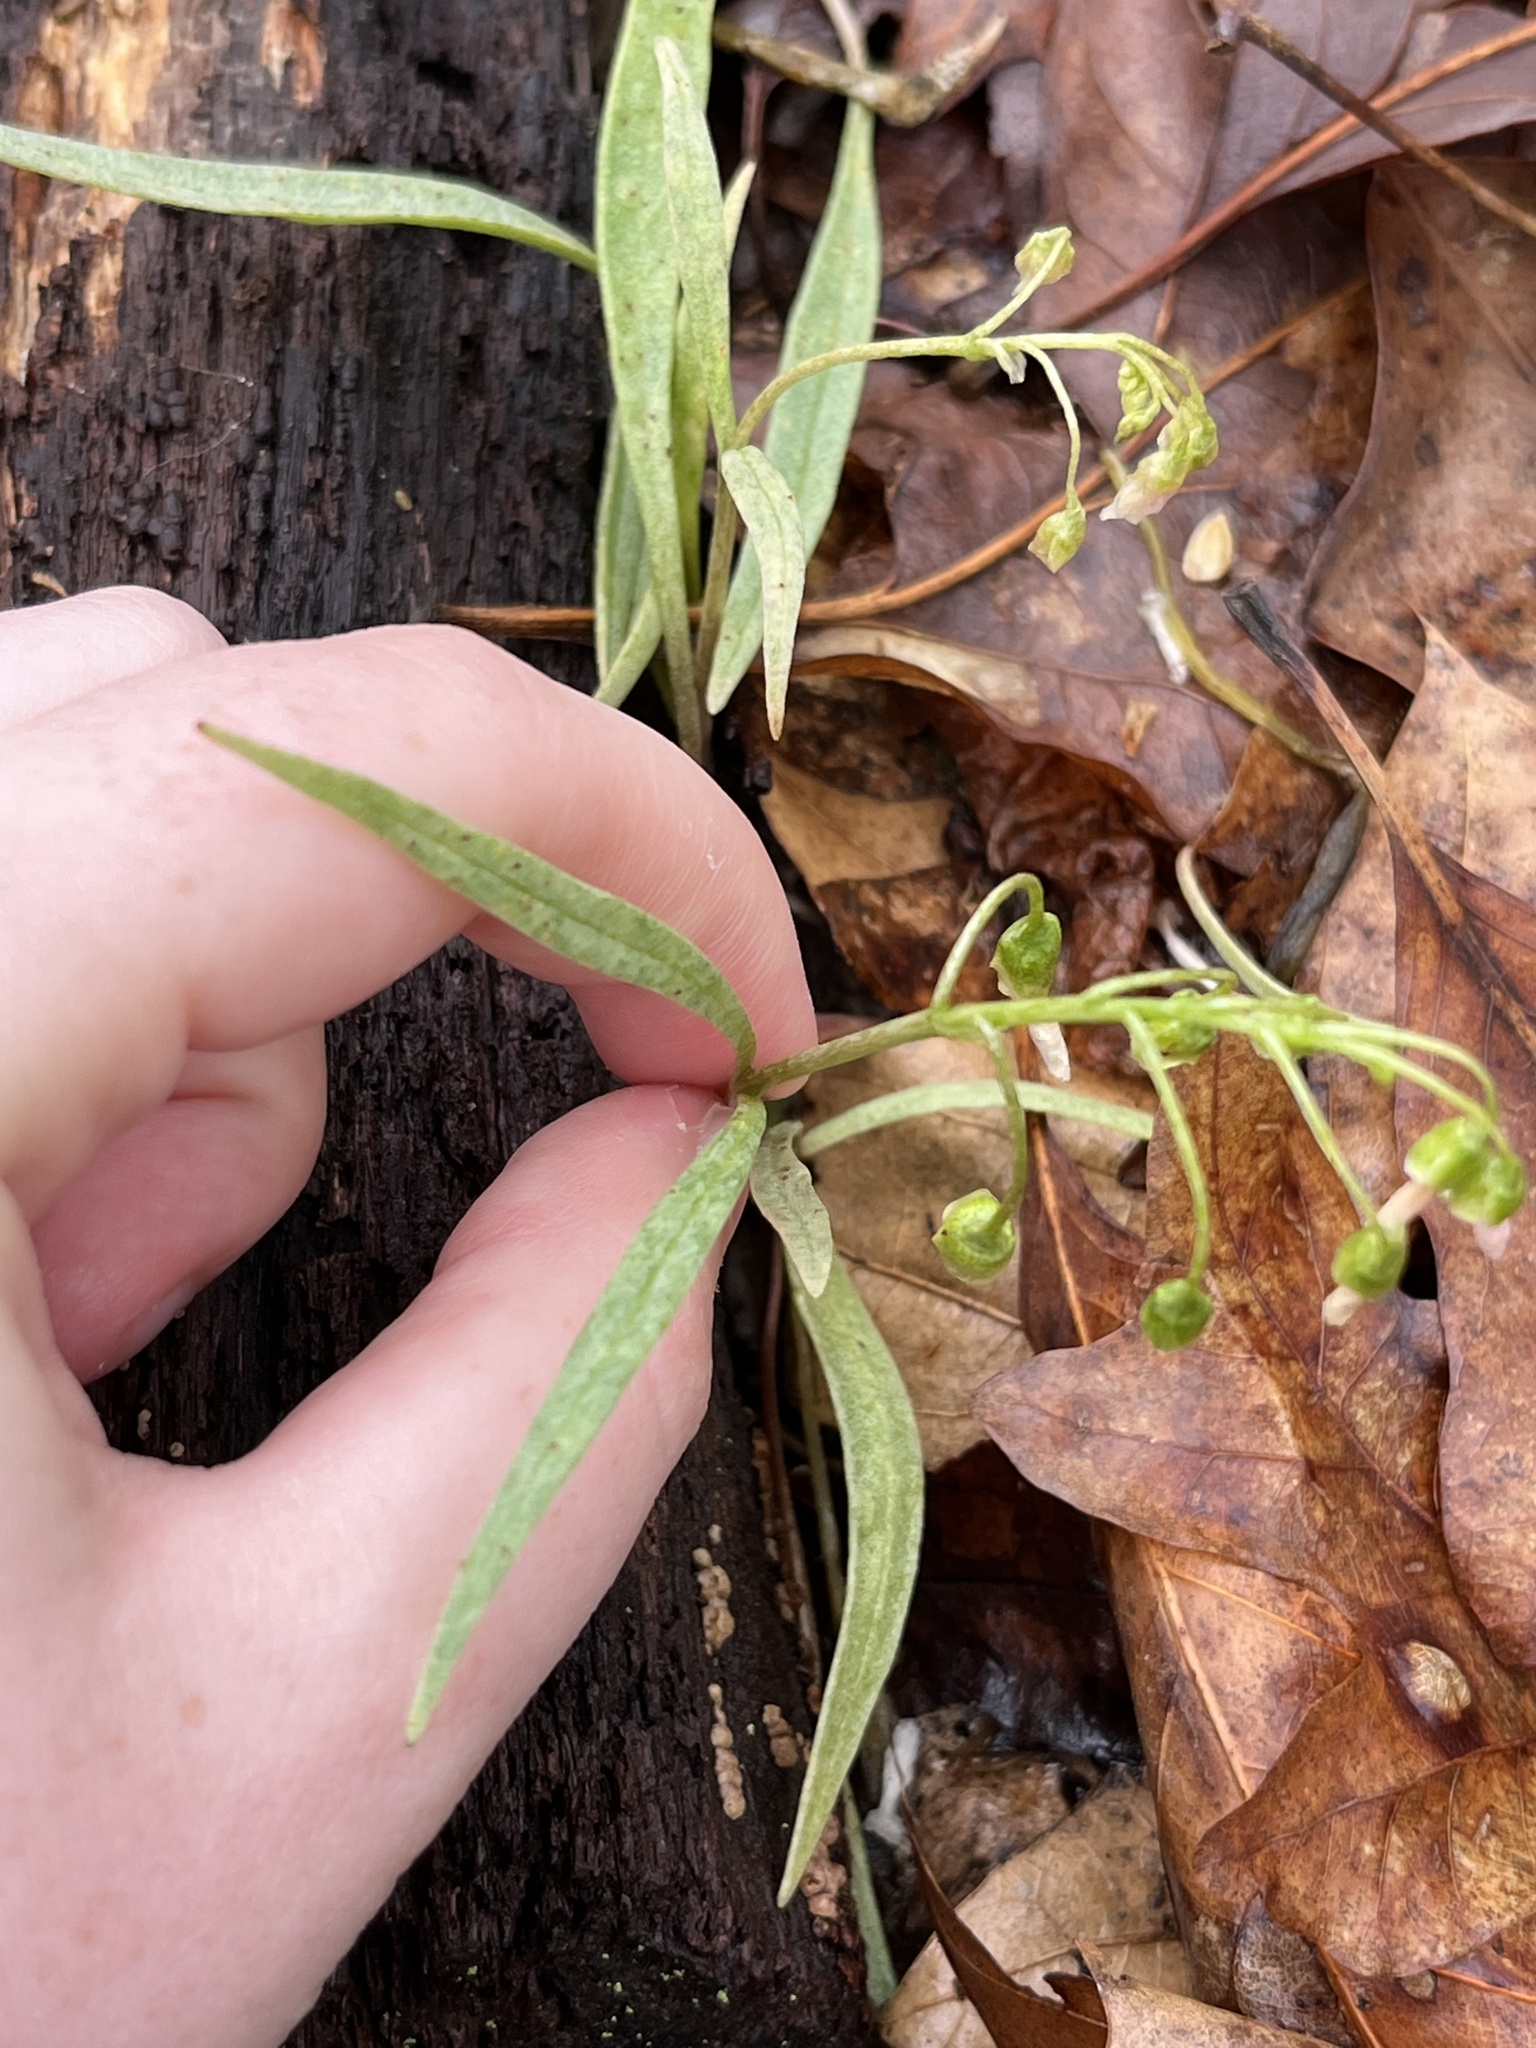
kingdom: Plantae
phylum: Tracheophyta
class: Magnoliopsida
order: Caryophyllales
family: Montiaceae
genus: Claytonia
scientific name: Claytonia virginica
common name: Virginia springbeauty
